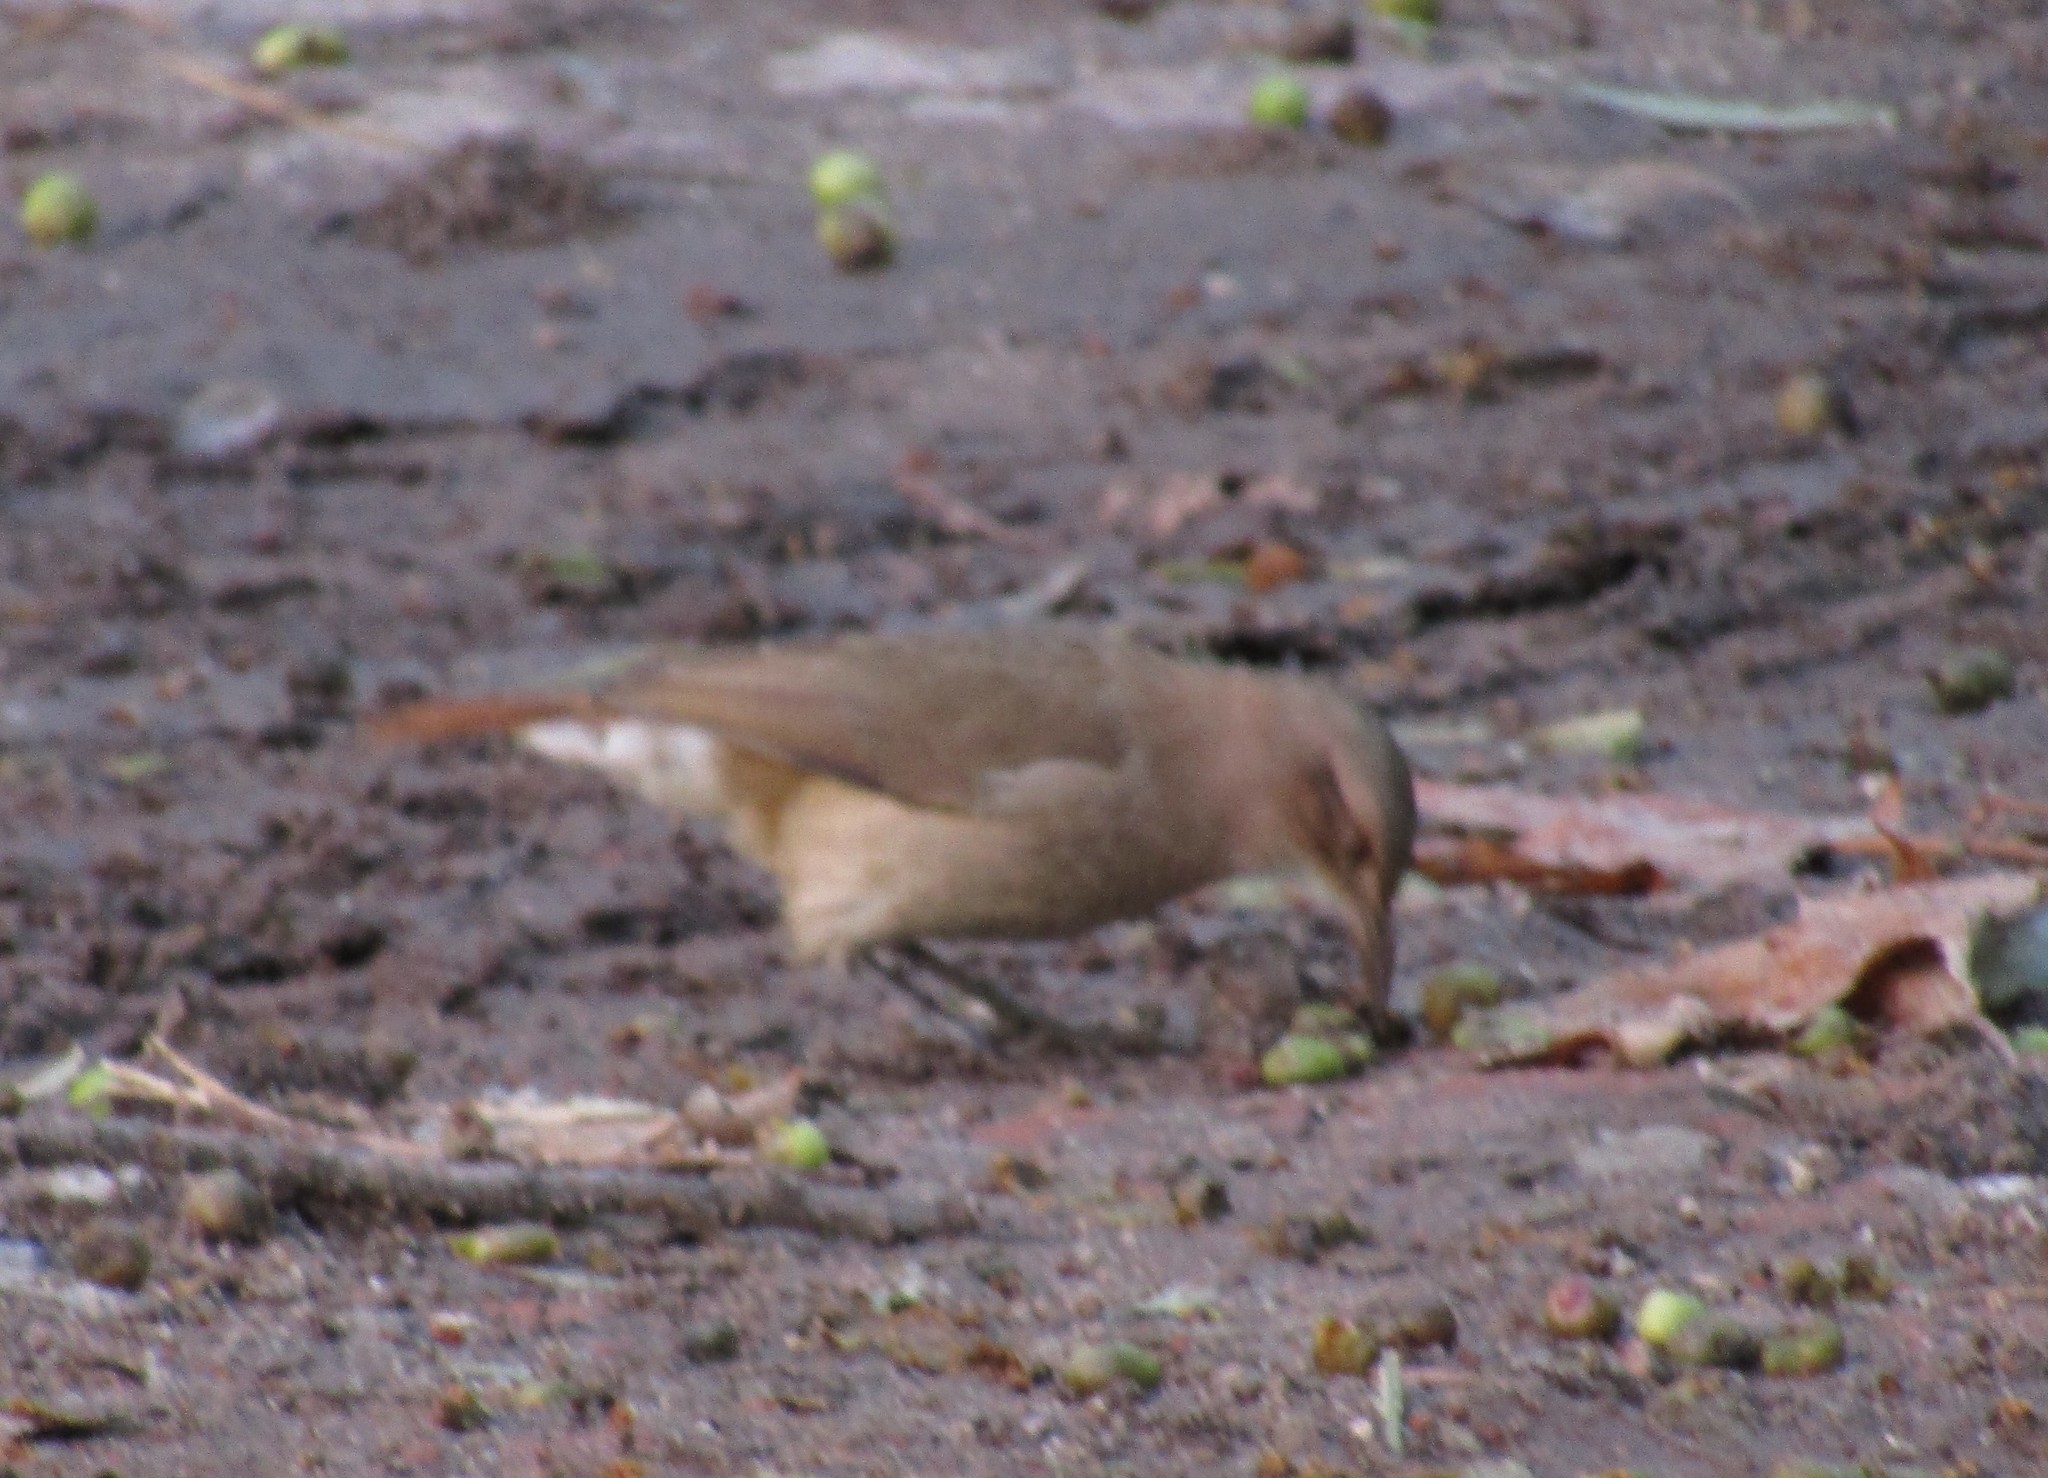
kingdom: Animalia
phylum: Chordata
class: Aves
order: Passeriformes
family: Furnariidae
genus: Furnarius
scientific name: Furnarius rufus
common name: Rufous hornero
